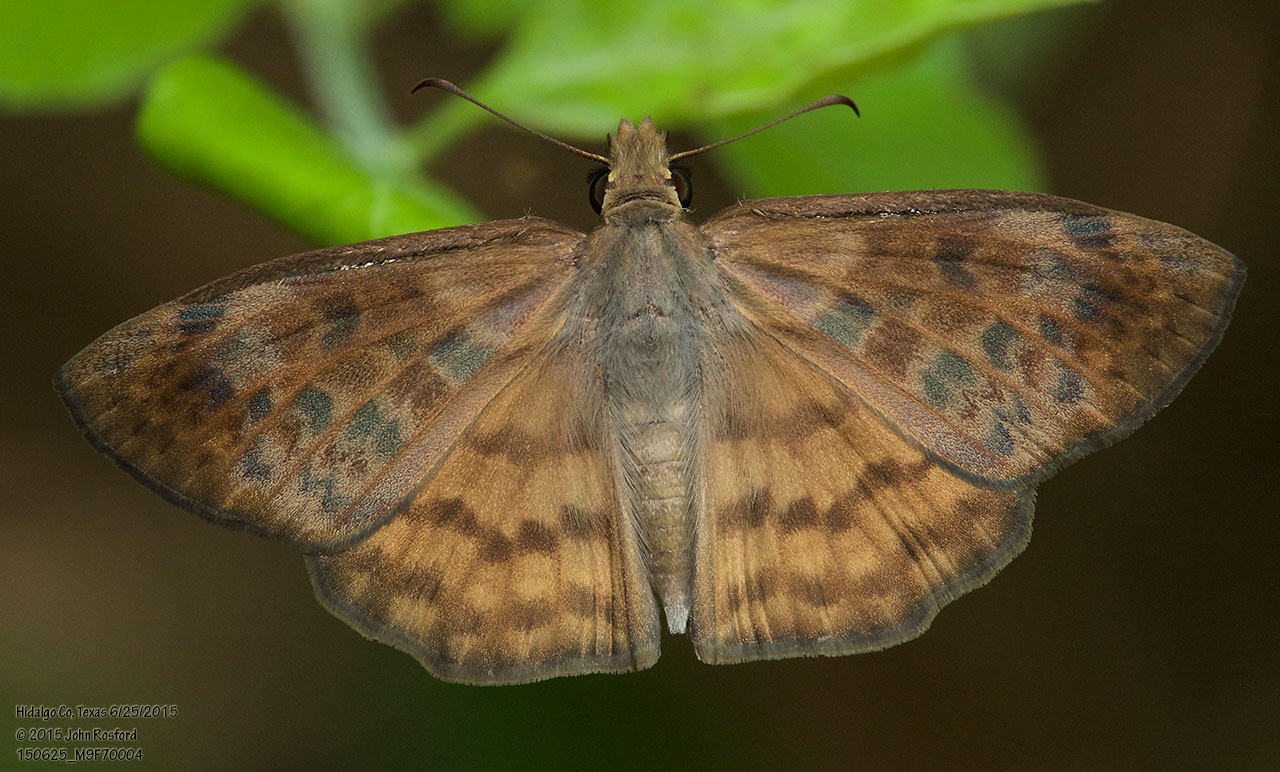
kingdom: Animalia
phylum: Arthropoda
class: Insecta
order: Lepidoptera
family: Hesperiidae
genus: Timochares
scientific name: Timochares ruptifasciata
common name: Brown-banded skipper
